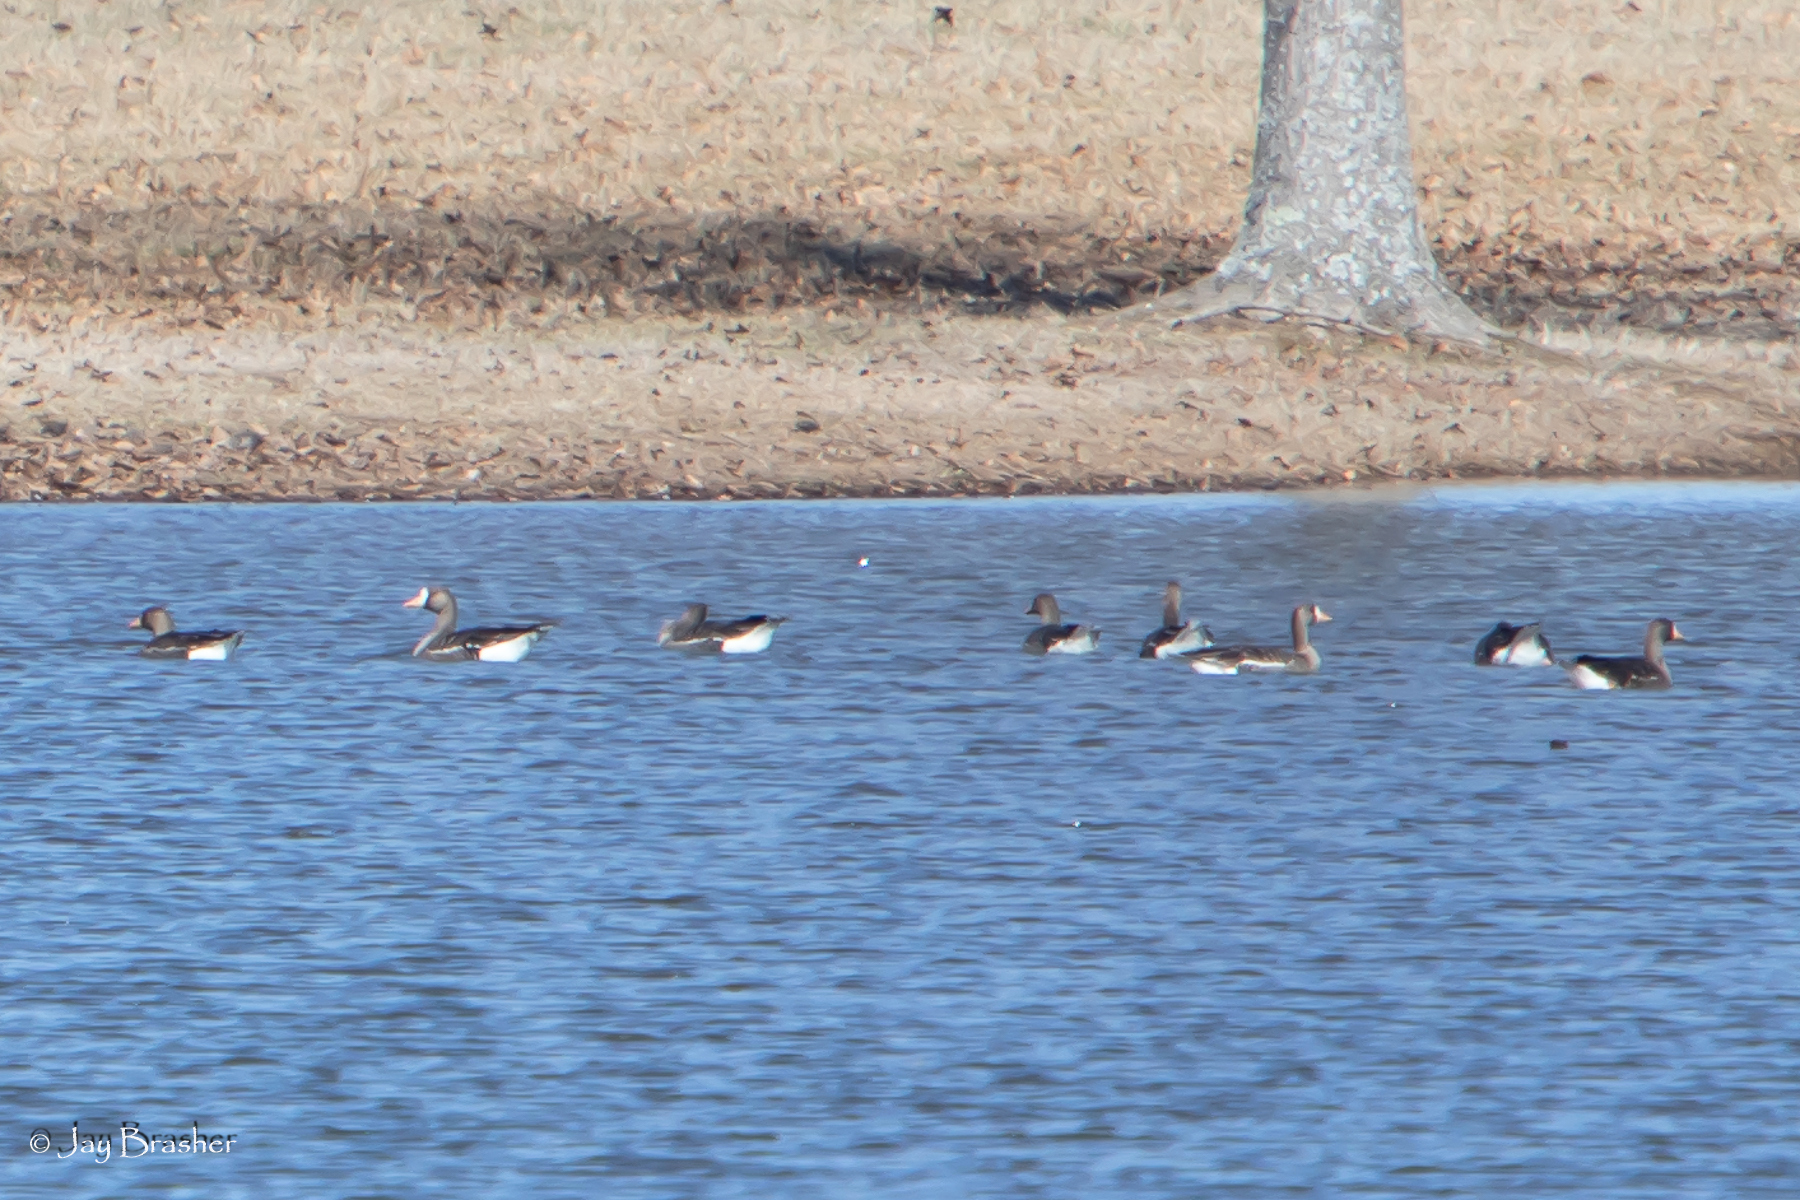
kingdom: Animalia
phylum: Chordata
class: Aves
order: Anseriformes
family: Anatidae
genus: Anser
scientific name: Anser albifrons
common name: Greater white-fronted goose
